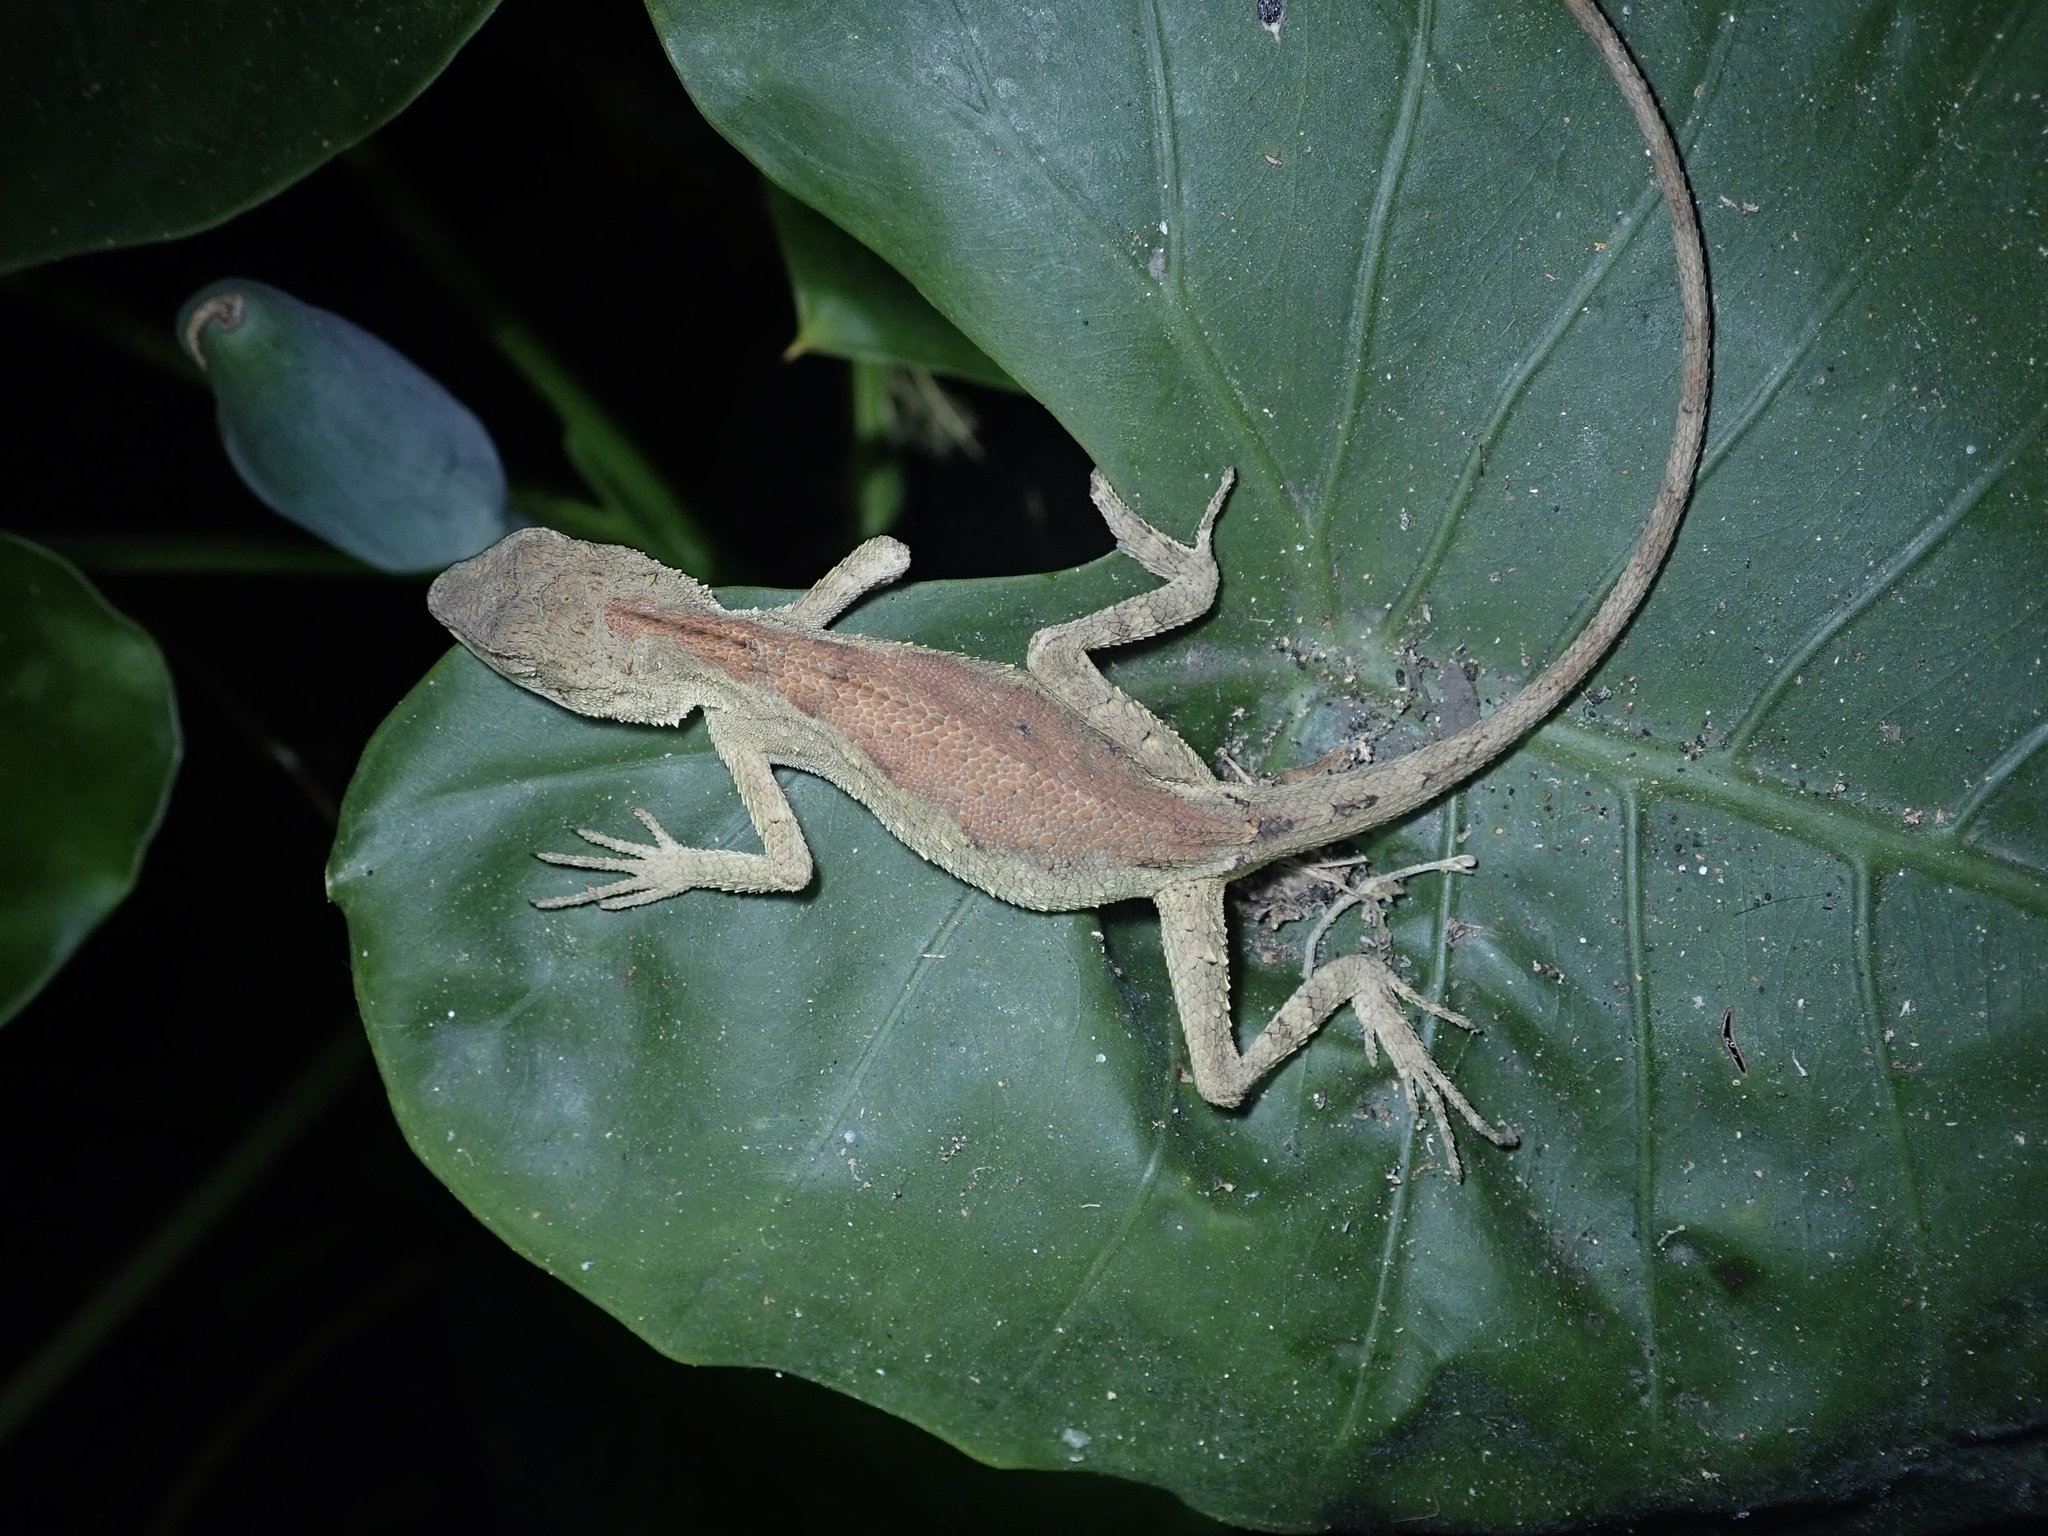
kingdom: Animalia
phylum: Chordata
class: Squamata
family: Agamidae
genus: Diploderma
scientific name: Diploderma swinhonis
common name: Taiwan japalure
